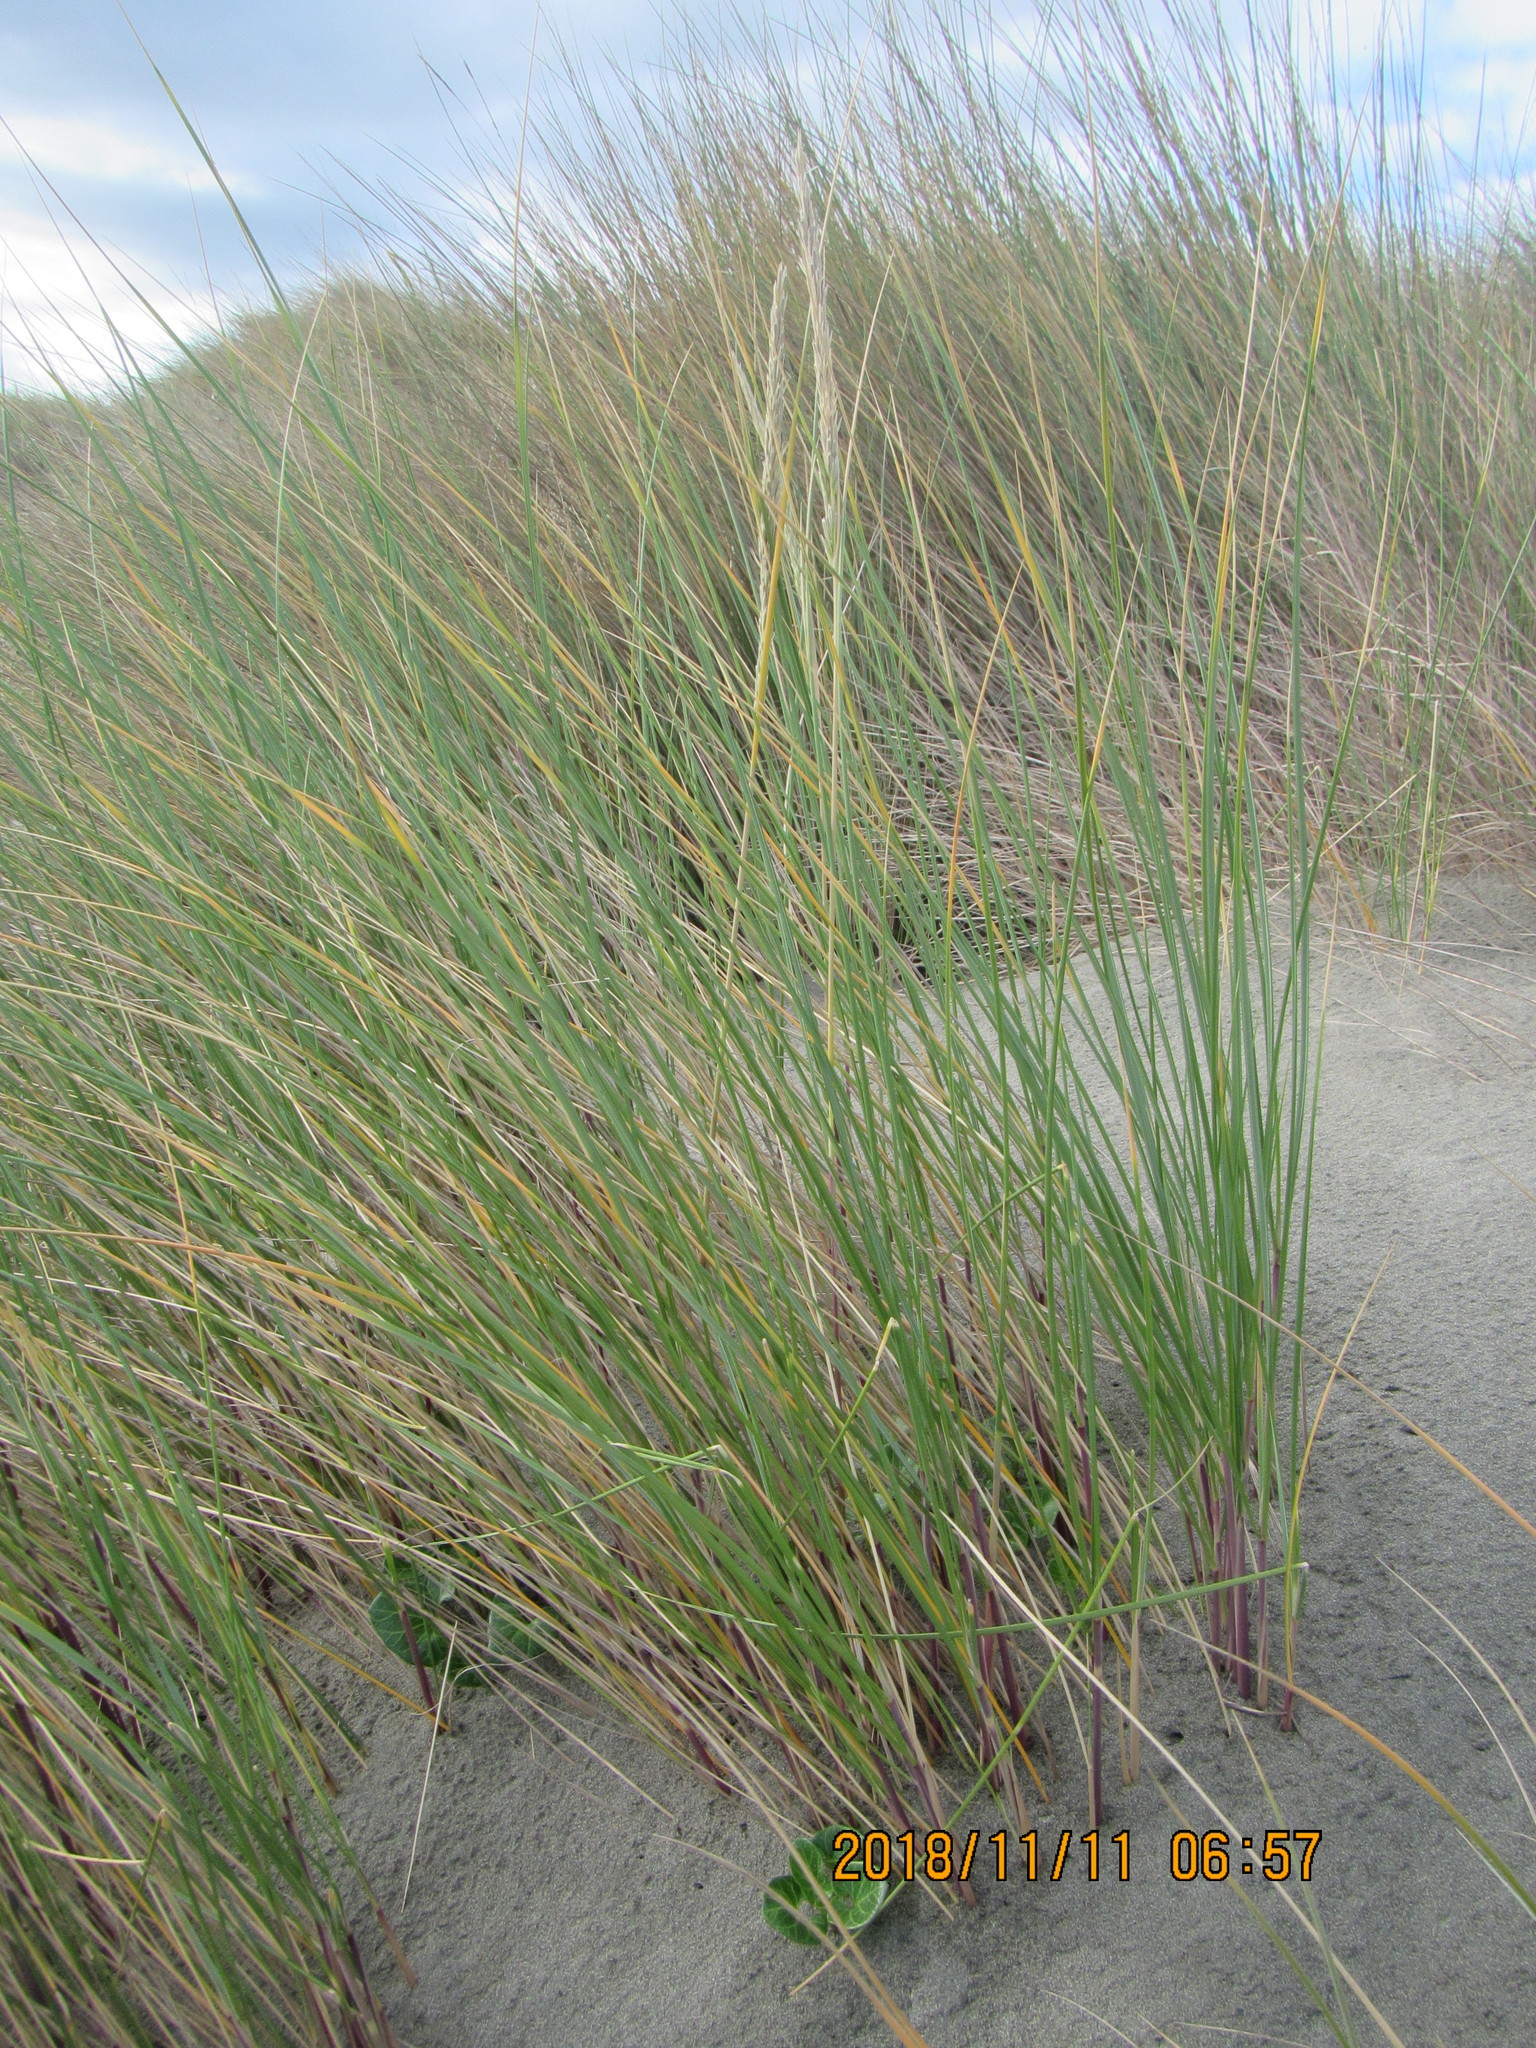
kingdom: Plantae
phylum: Tracheophyta
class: Liliopsida
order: Poales
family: Poaceae
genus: Calamagrostis
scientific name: Calamagrostis arenaria
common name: European beachgrass
